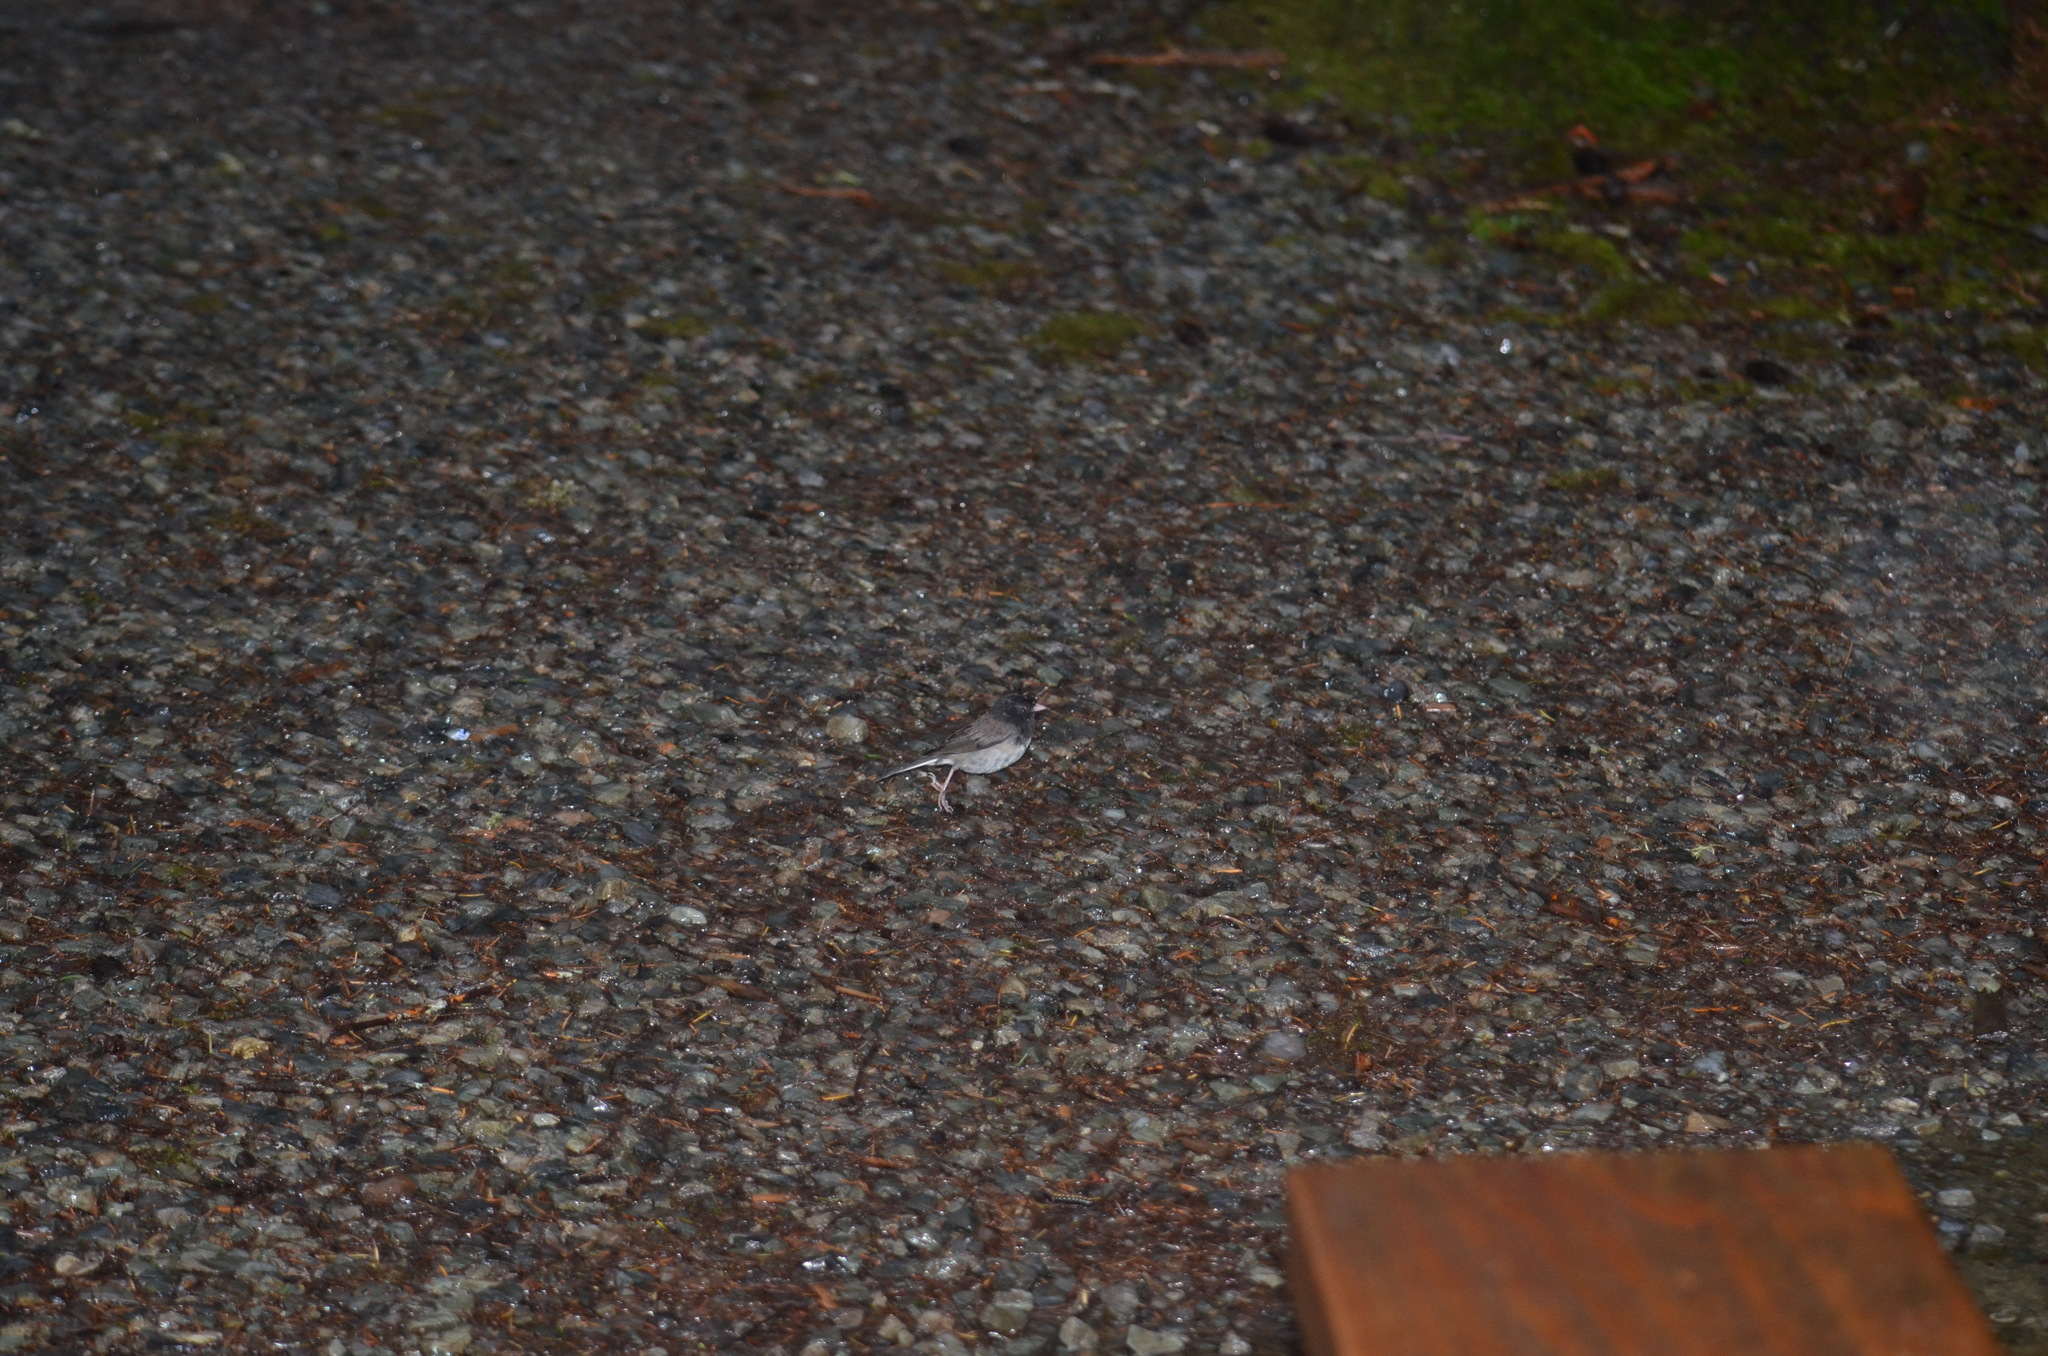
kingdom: Animalia
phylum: Chordata
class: Aves
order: Passeriformes
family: Passerellidae
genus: Junco
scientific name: Junco hyemalis
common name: Dark-eyed junco
